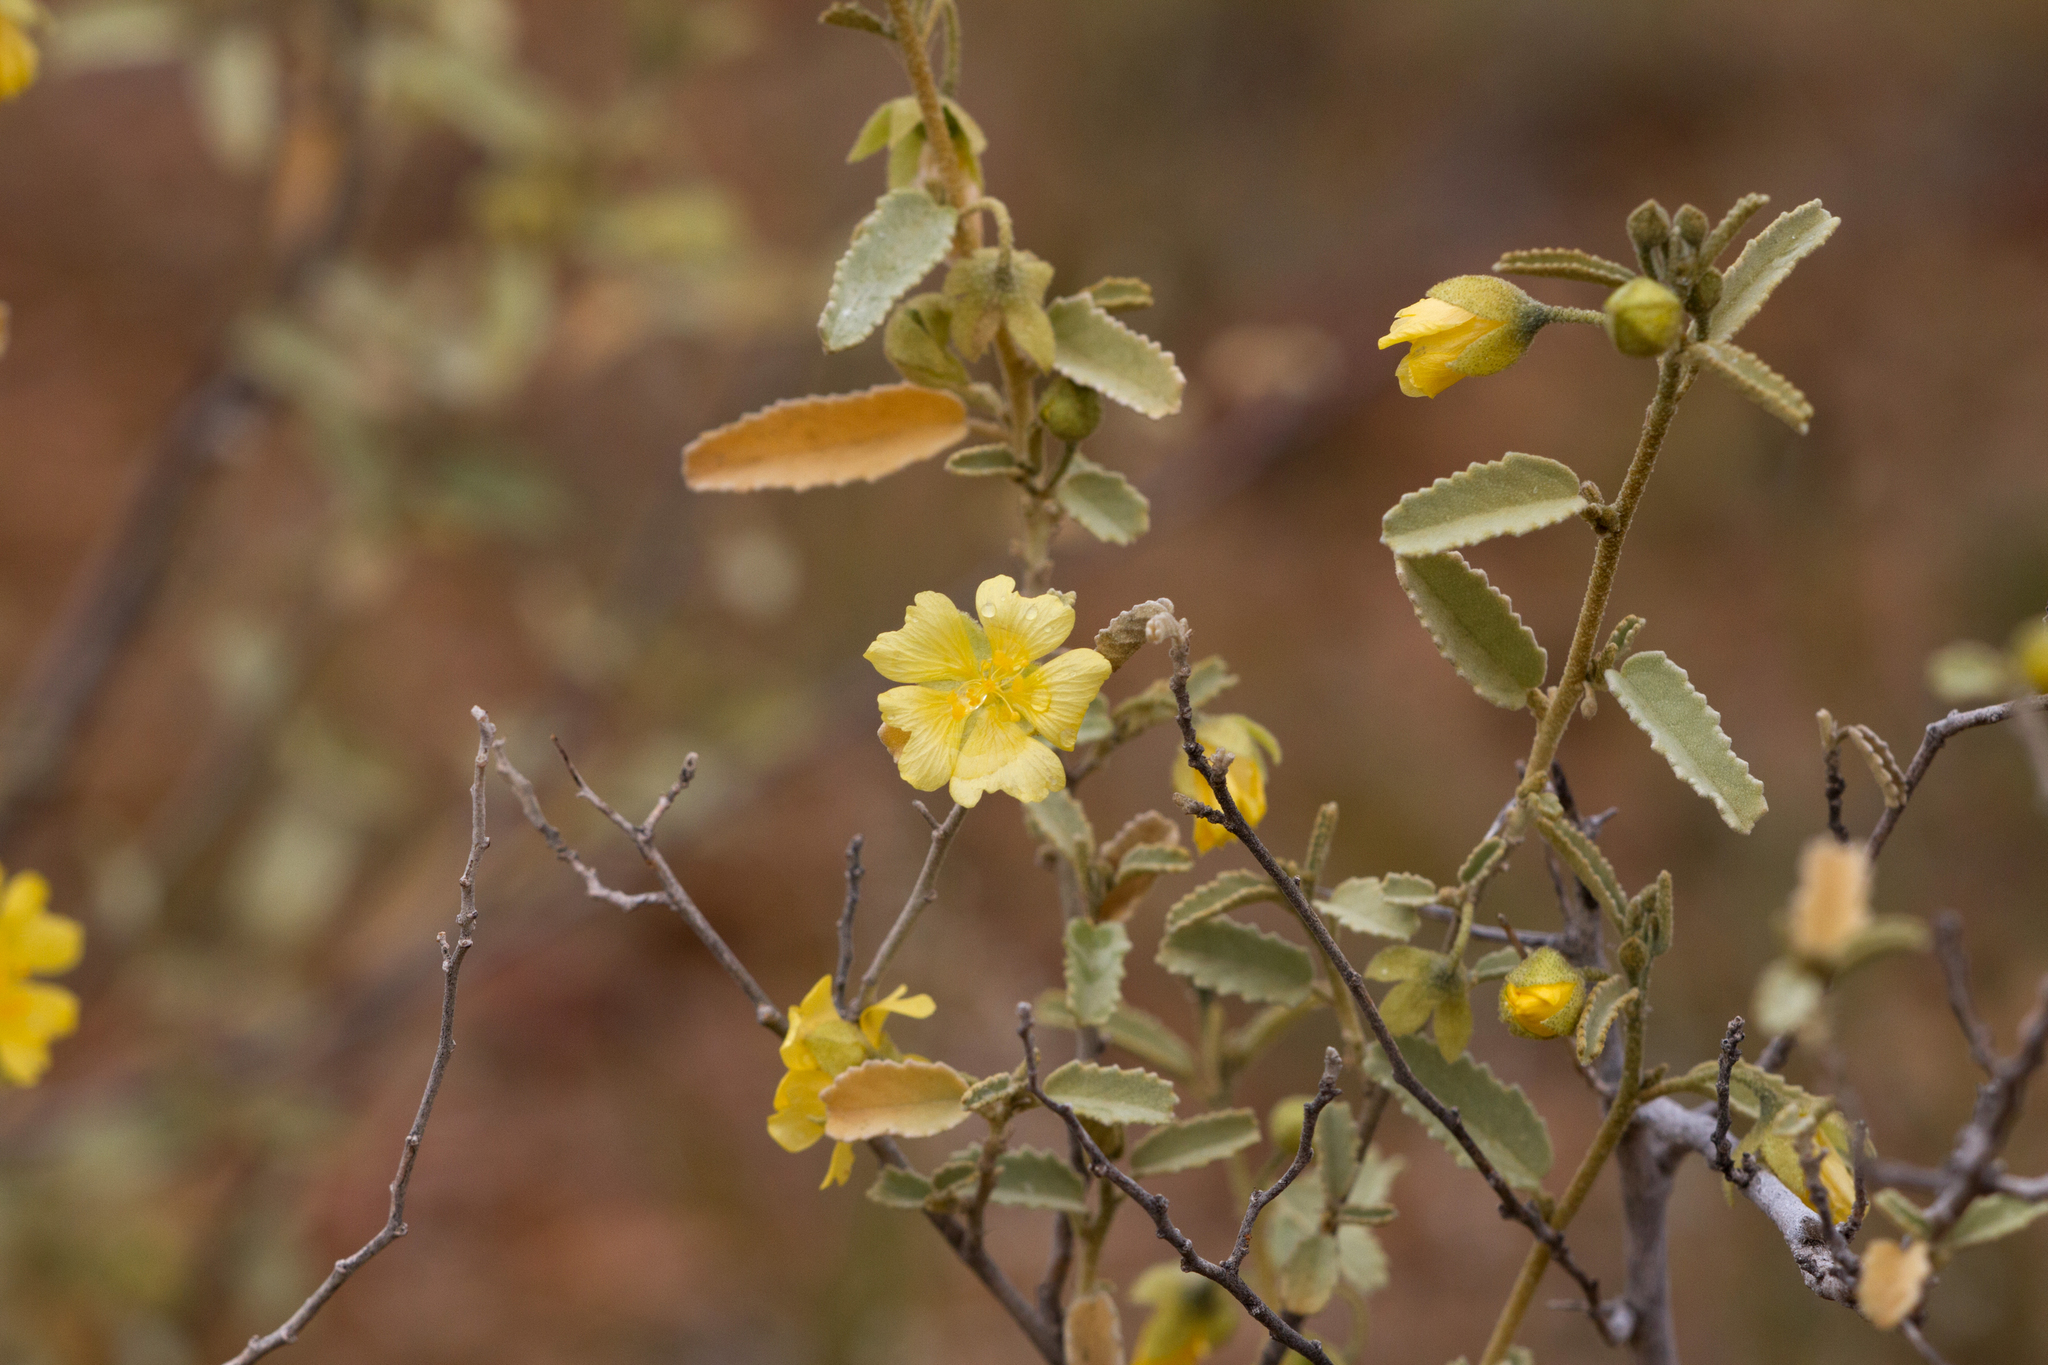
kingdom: Plantae
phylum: Tracheophyta
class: Magnoliopsida
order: Malvales
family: Malvaceae
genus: Sida
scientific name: Sida calyxhymenia
